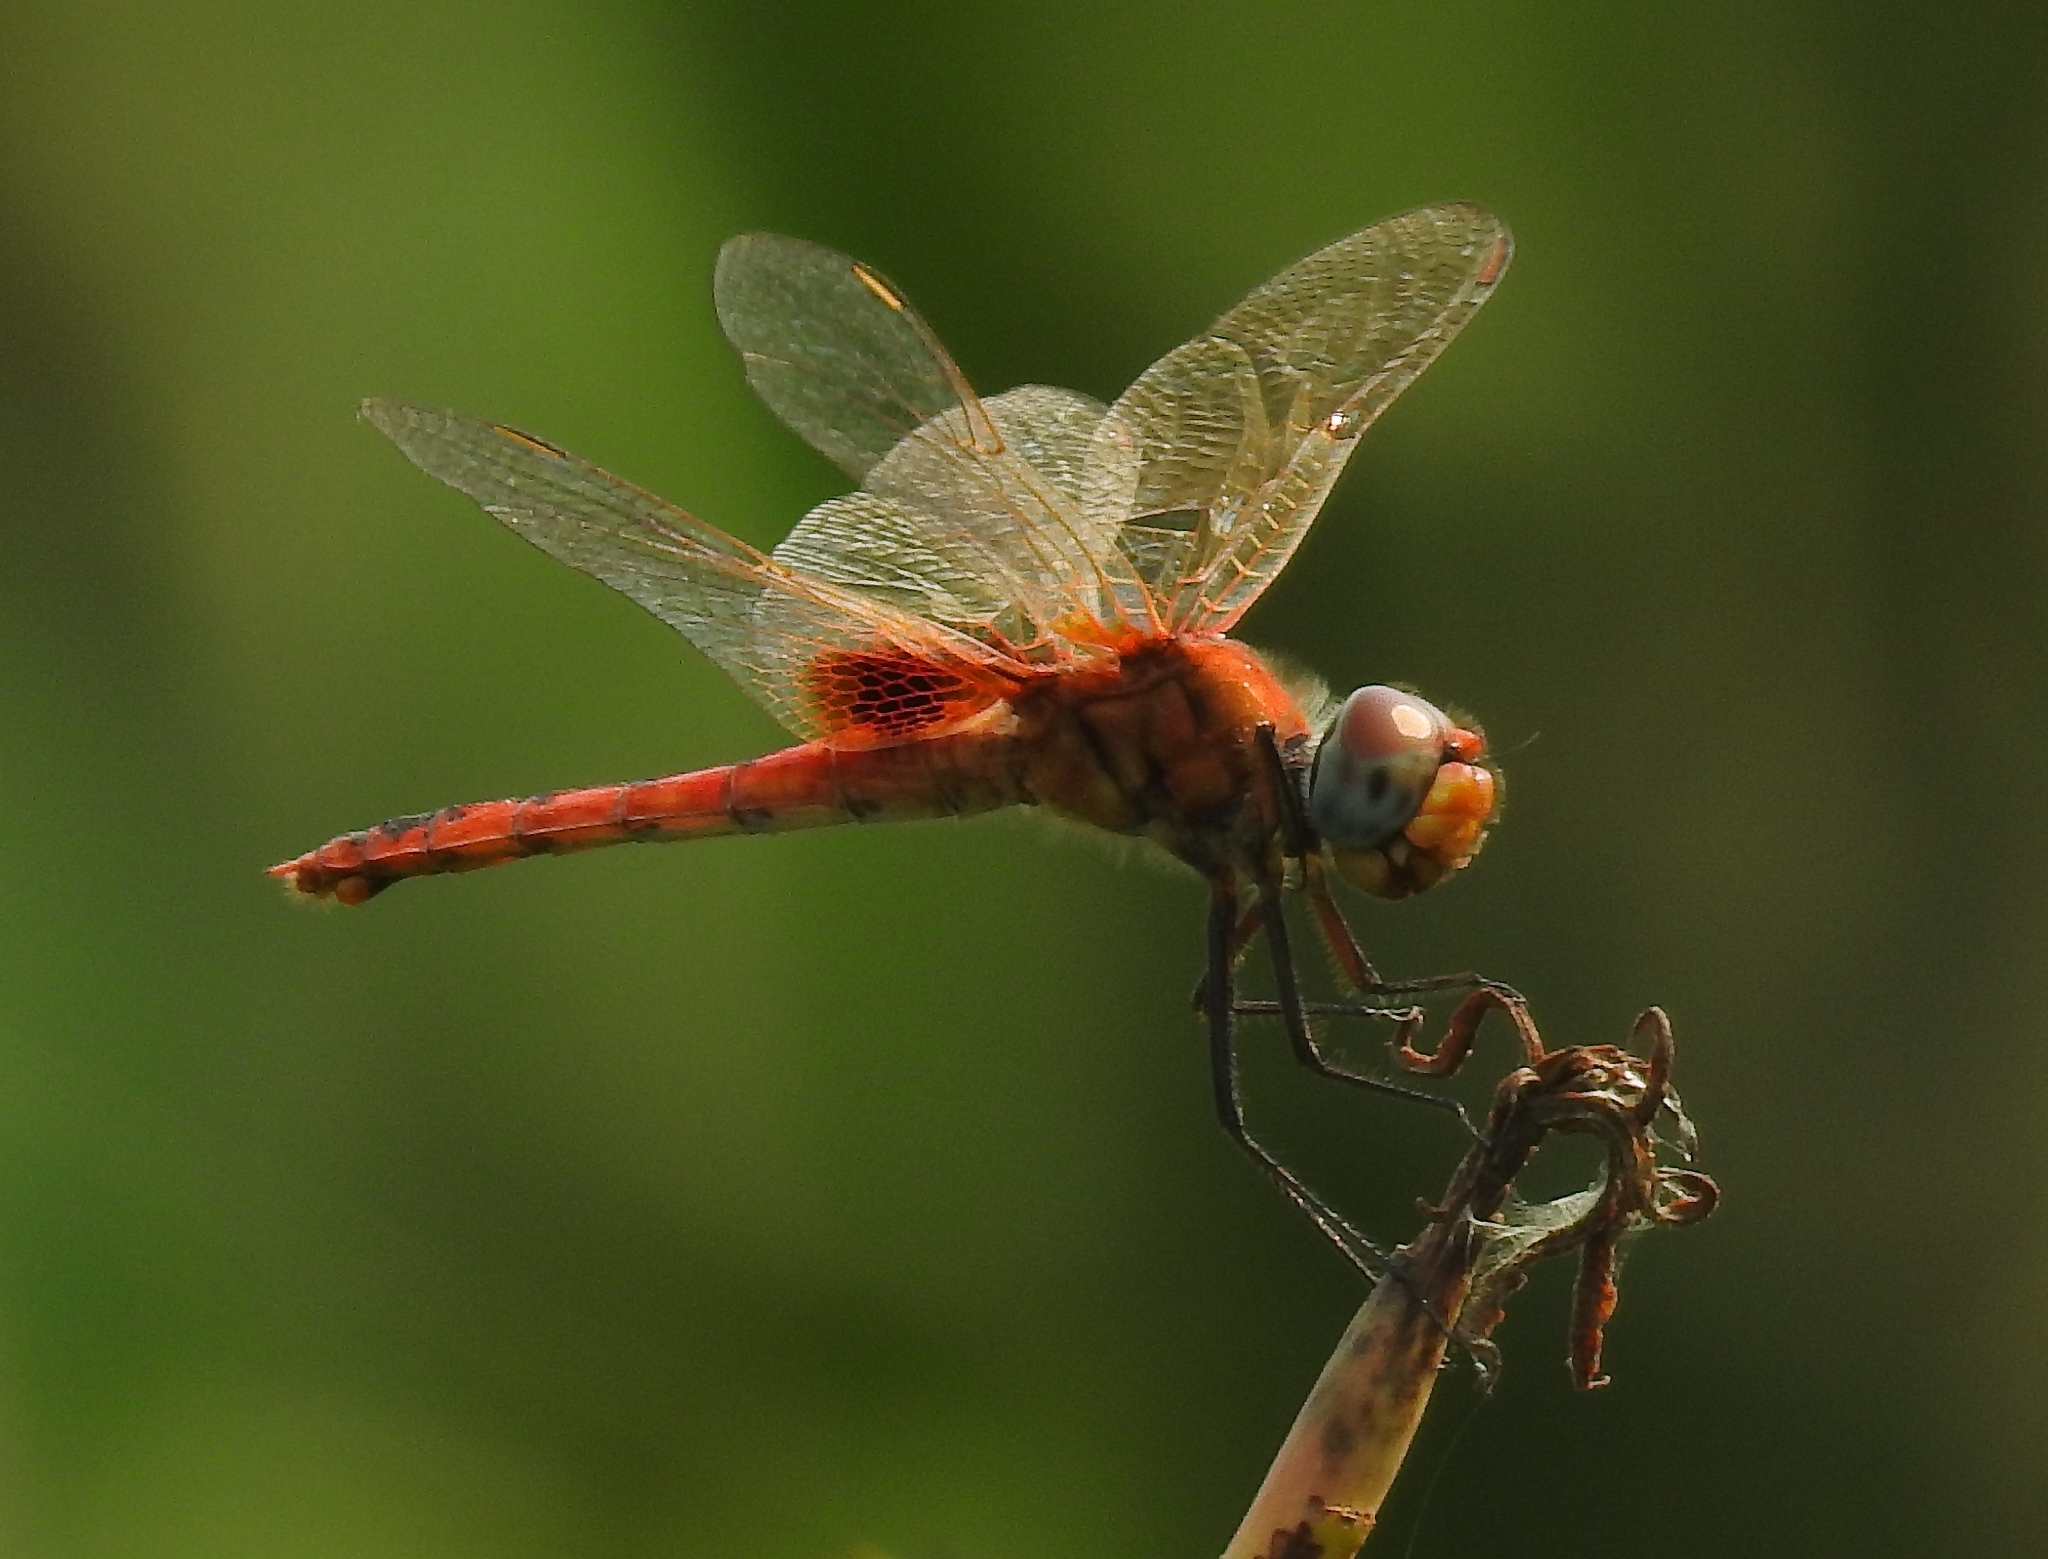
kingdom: Animalia
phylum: Arthropoda
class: Insecta
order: Odonata
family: Libellulidae
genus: Urothemis
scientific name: Urothemis signata
